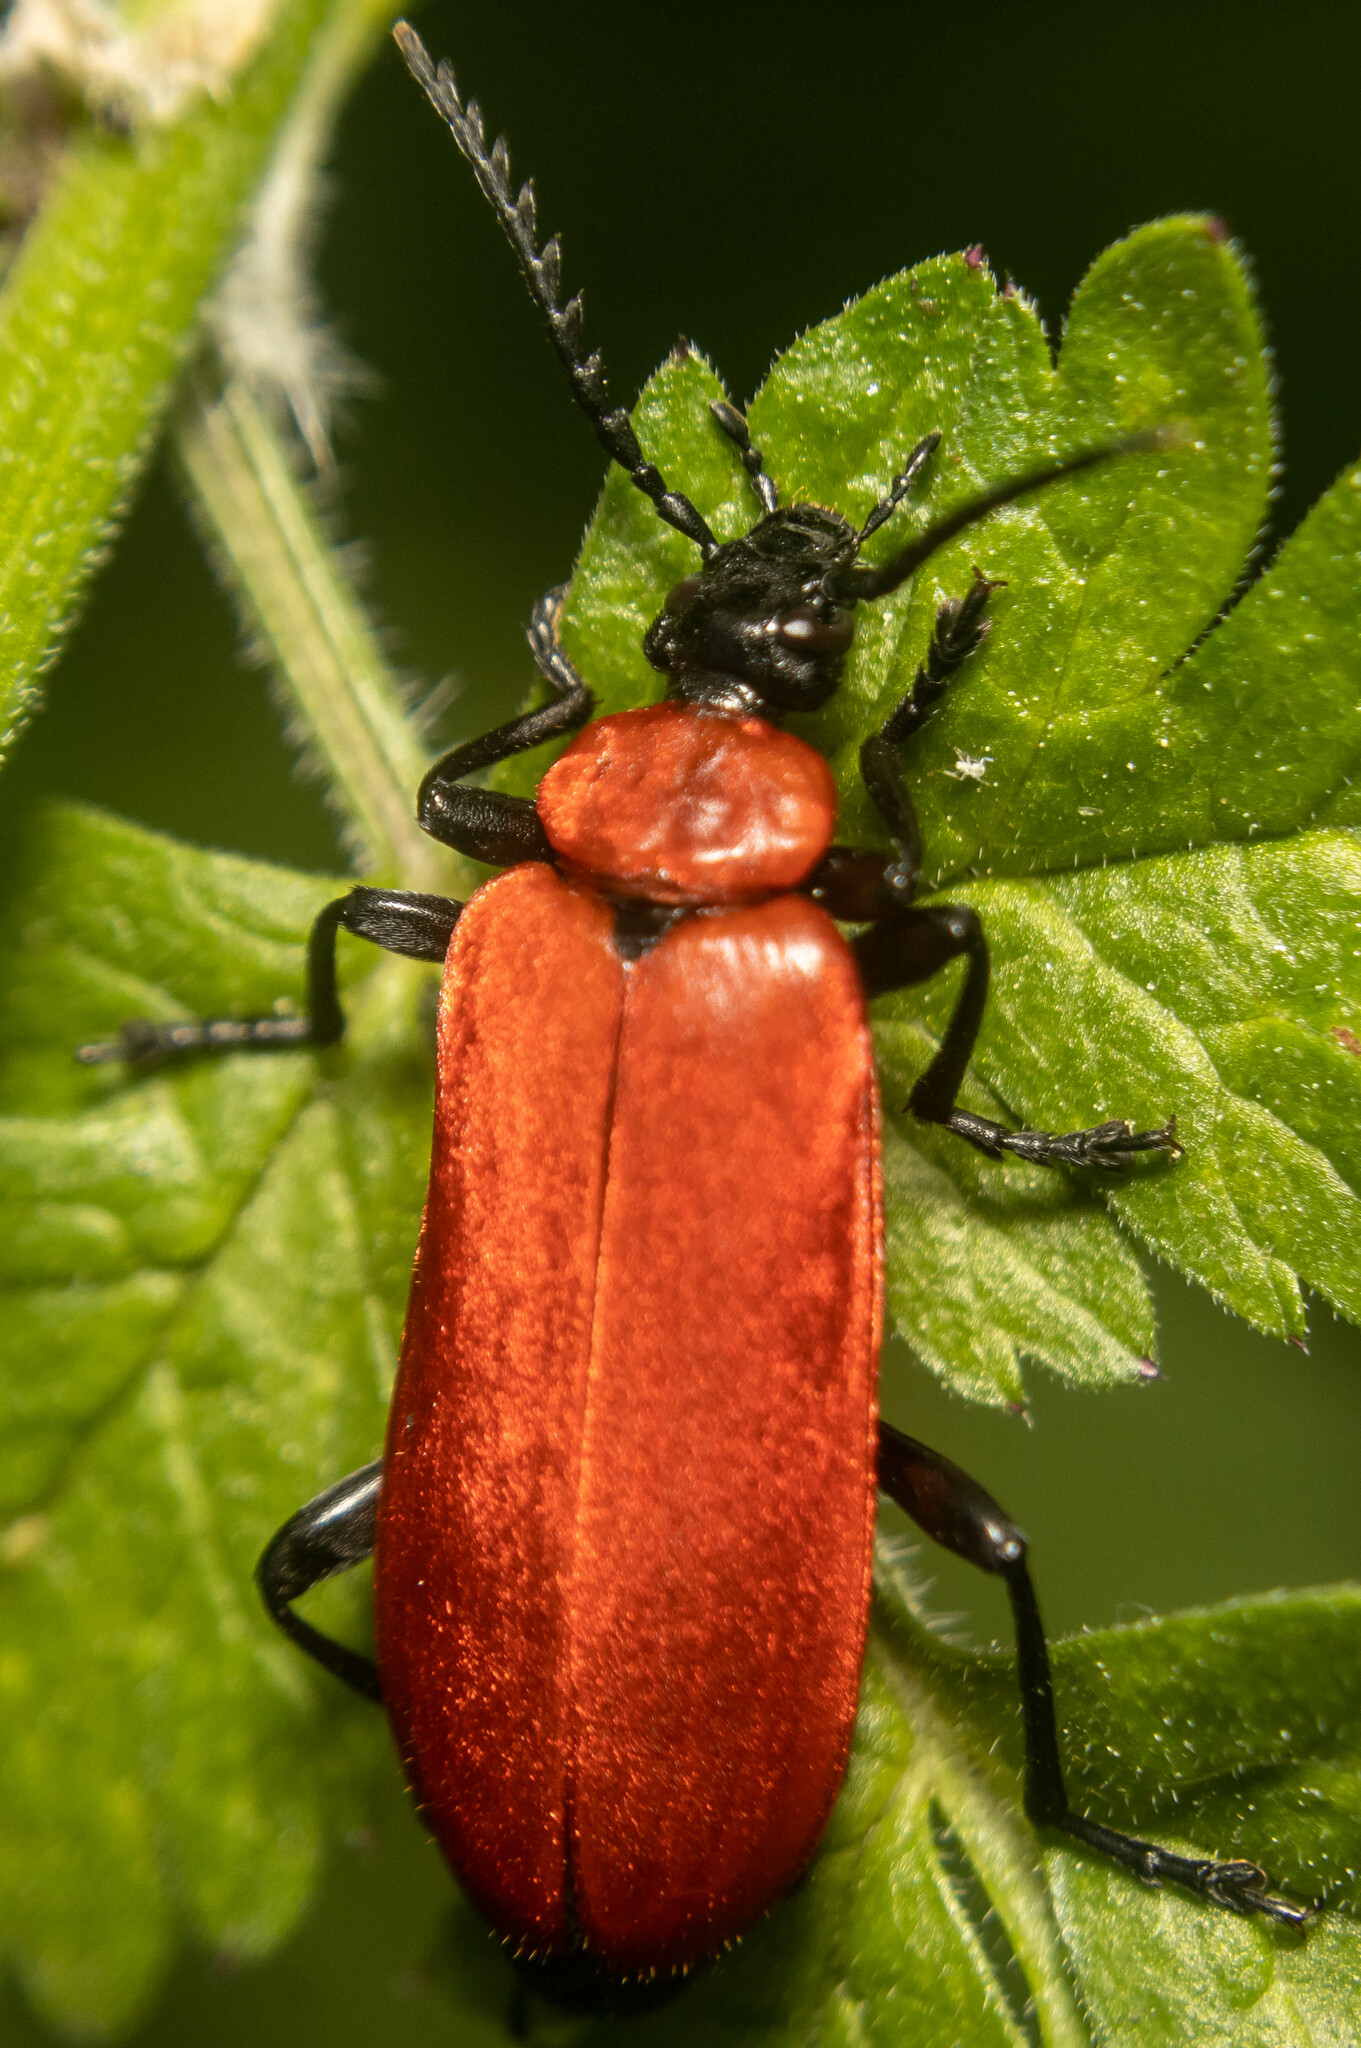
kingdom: Animalia
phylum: Arthropoda
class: Insecta
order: Coleoptera
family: Pyrochroidae
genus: Pyrochroa
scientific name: Pyrochroa coccinea
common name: Black-headed cardinal beetle
